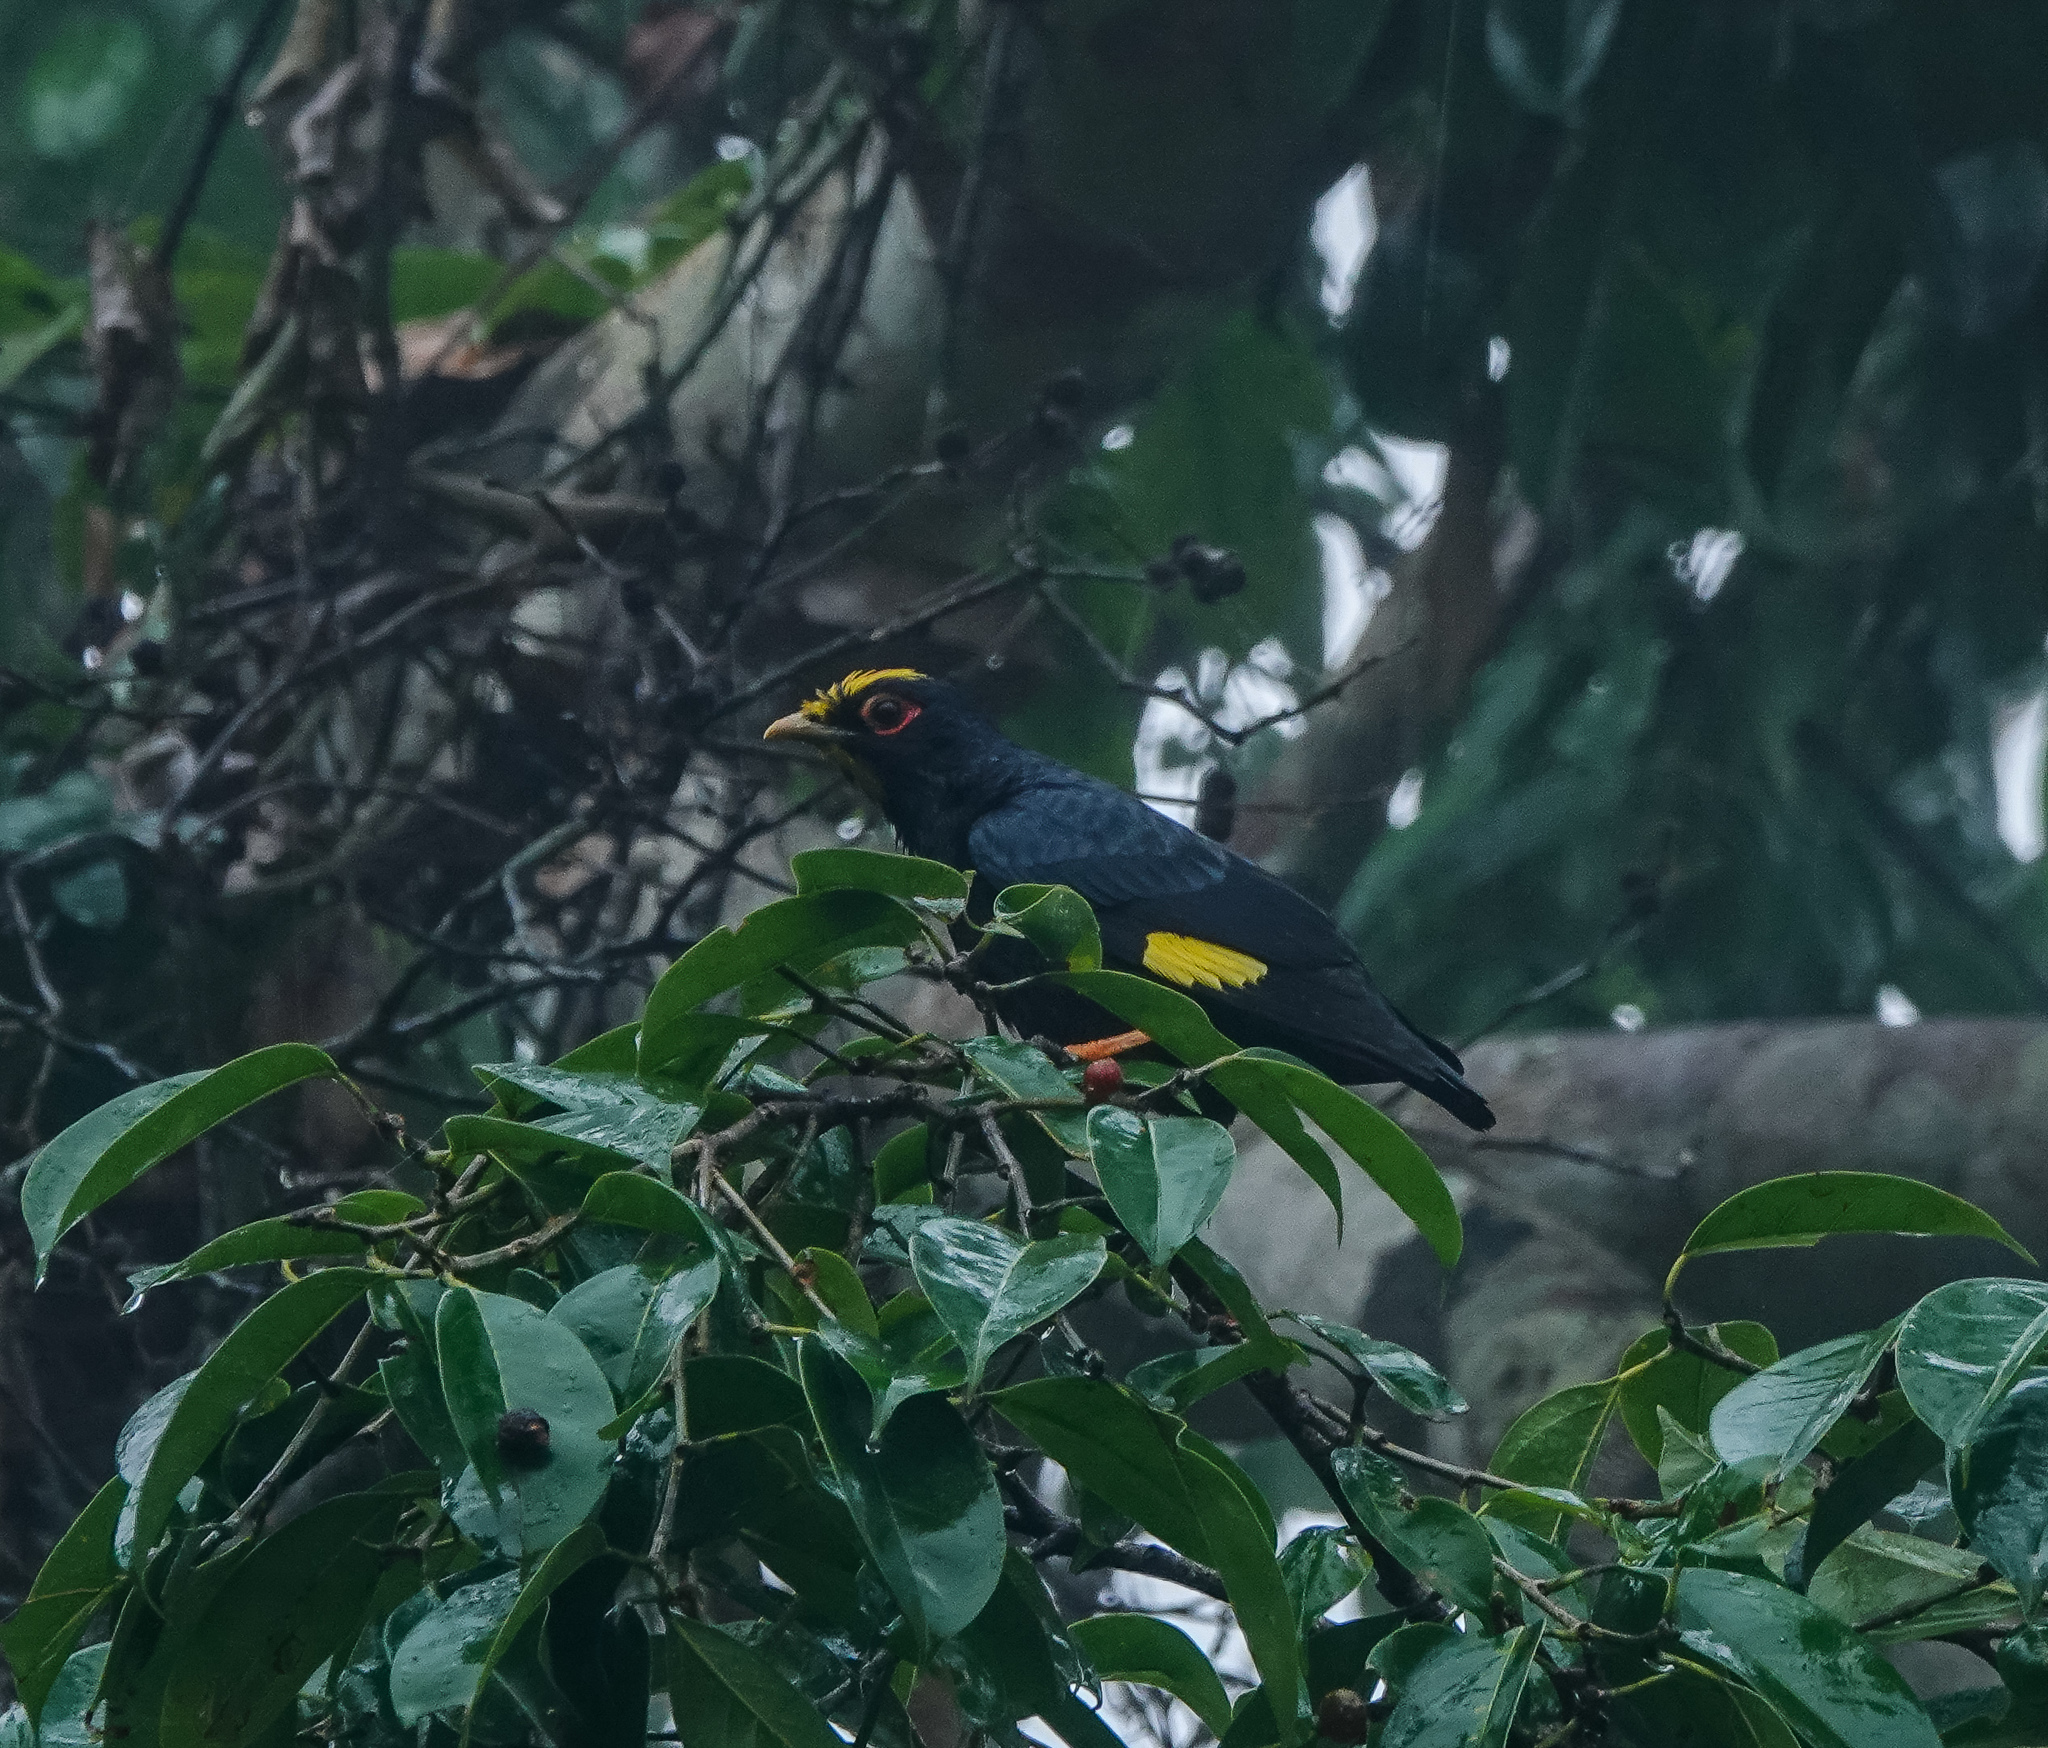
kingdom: Animalia
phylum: Chordata
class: Aves
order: Passeriformes
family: Sturnidae
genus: Ampeliceps
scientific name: Ampeliceps coronatus
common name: Golden-crested myna
